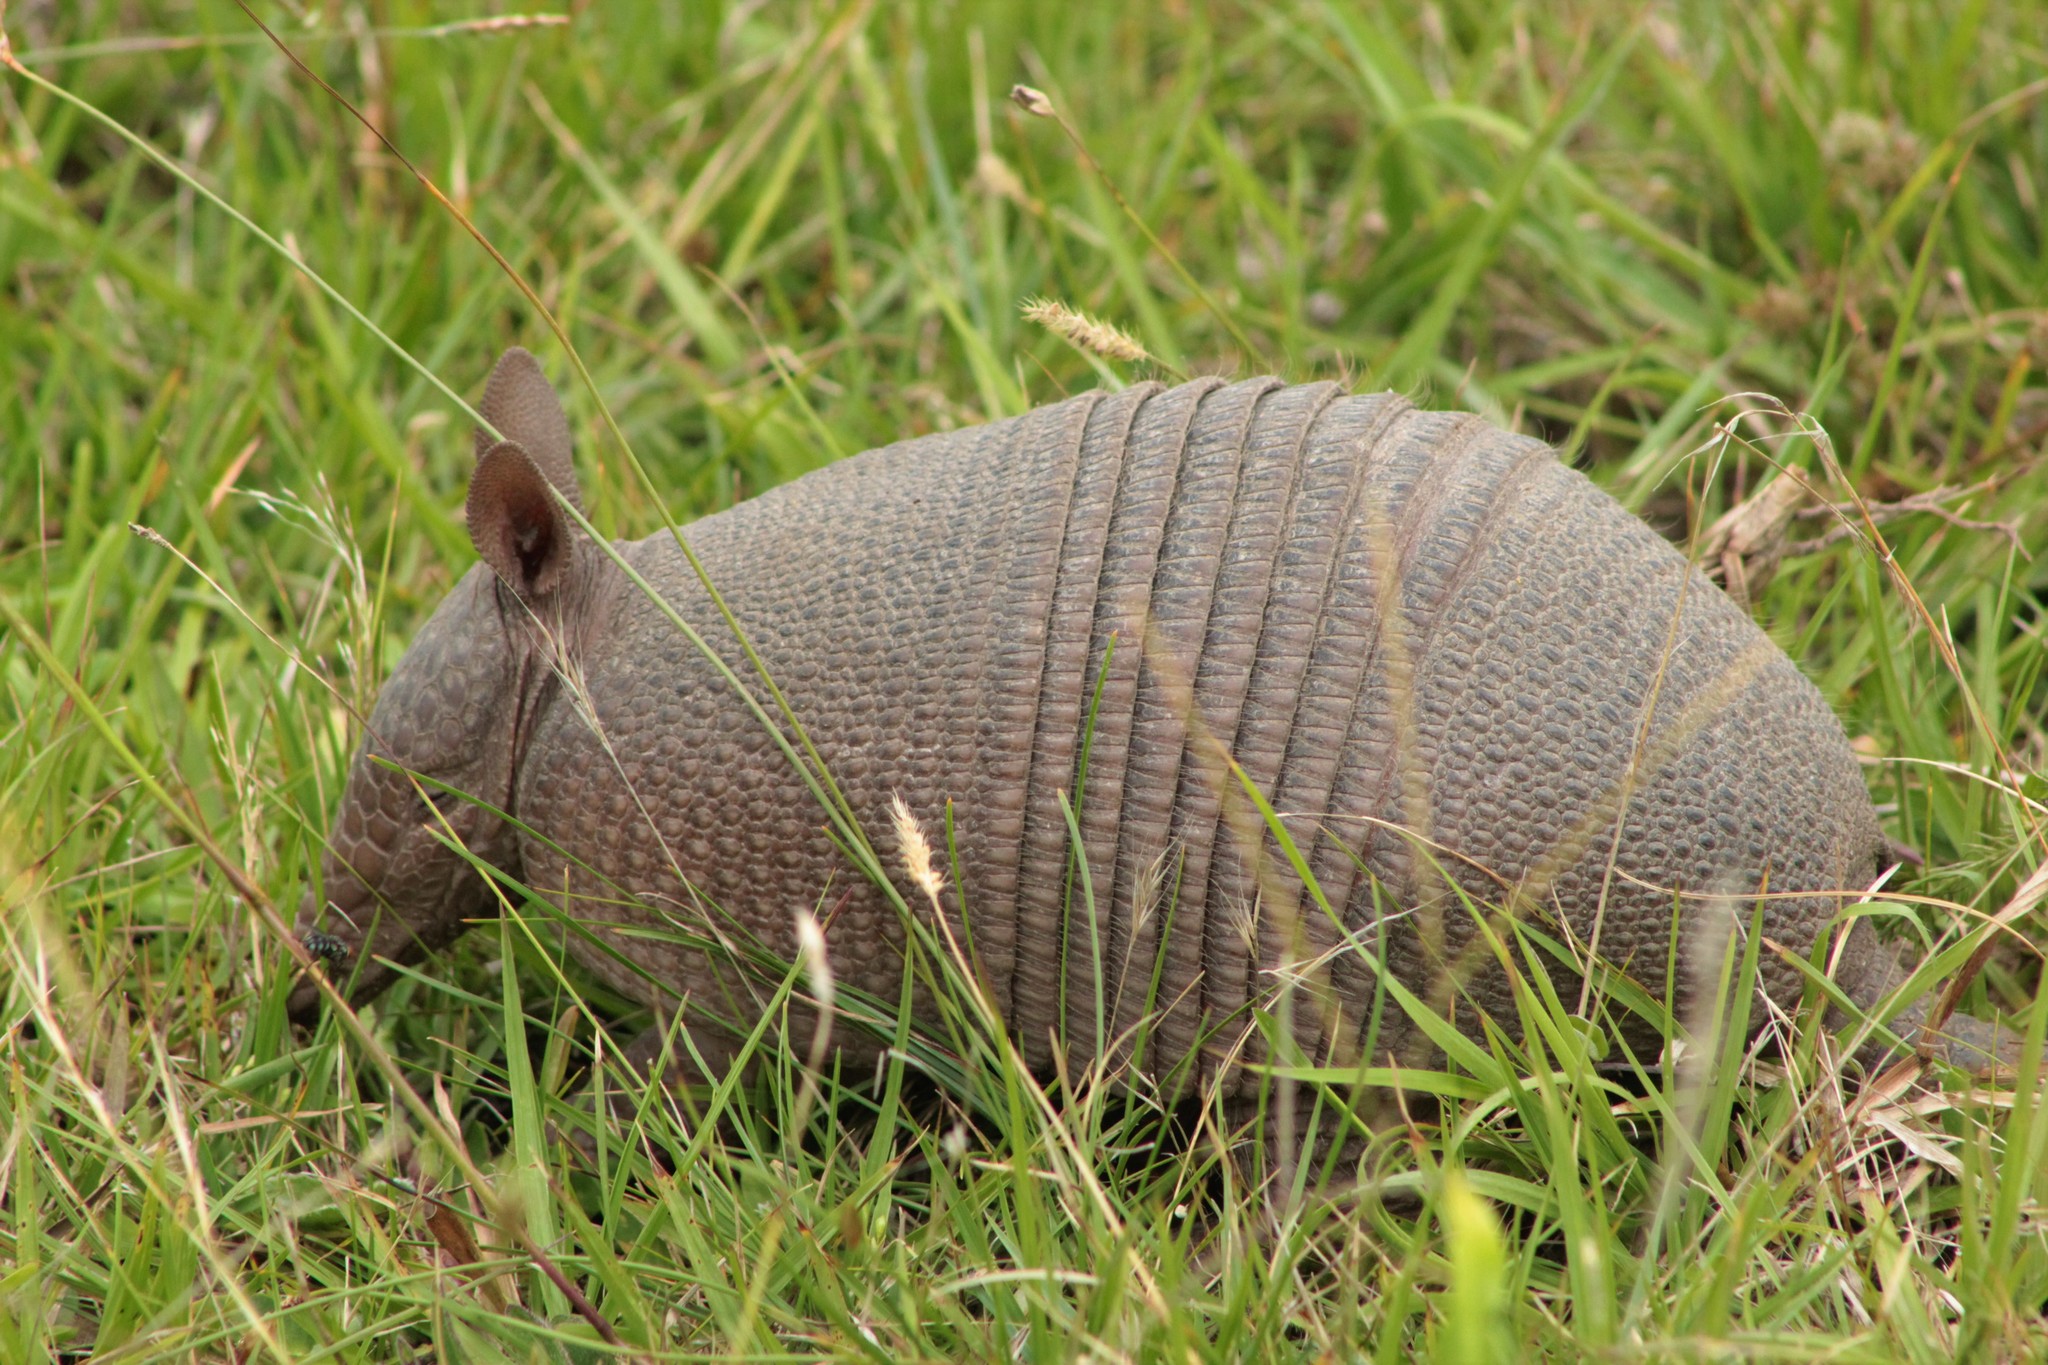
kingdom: Animalia
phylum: Chordata
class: Mammalia
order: Cingulata
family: Dasypodidae
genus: Dasypus
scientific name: Dasypus septemcinctus
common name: Seven-banded armadillo
